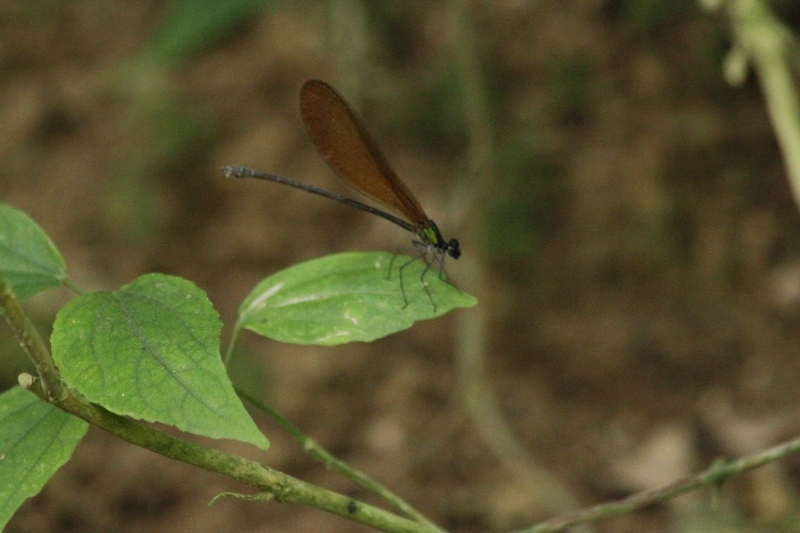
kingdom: Animalia
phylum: Arthropoda
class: Insecta
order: Odonata
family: Calopterygidae
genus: Vestalis
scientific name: Vestalis luctuosa
